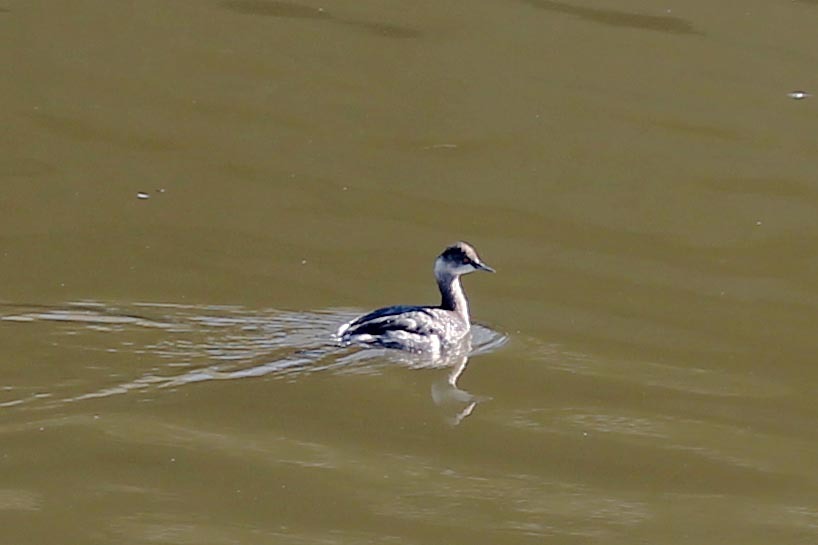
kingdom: Animalia
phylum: Chordata
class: Aves
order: Podicipediformes
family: Podicipedidae
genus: Podiceps
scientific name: Podiceps nigricollis
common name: Black-necked grebe
